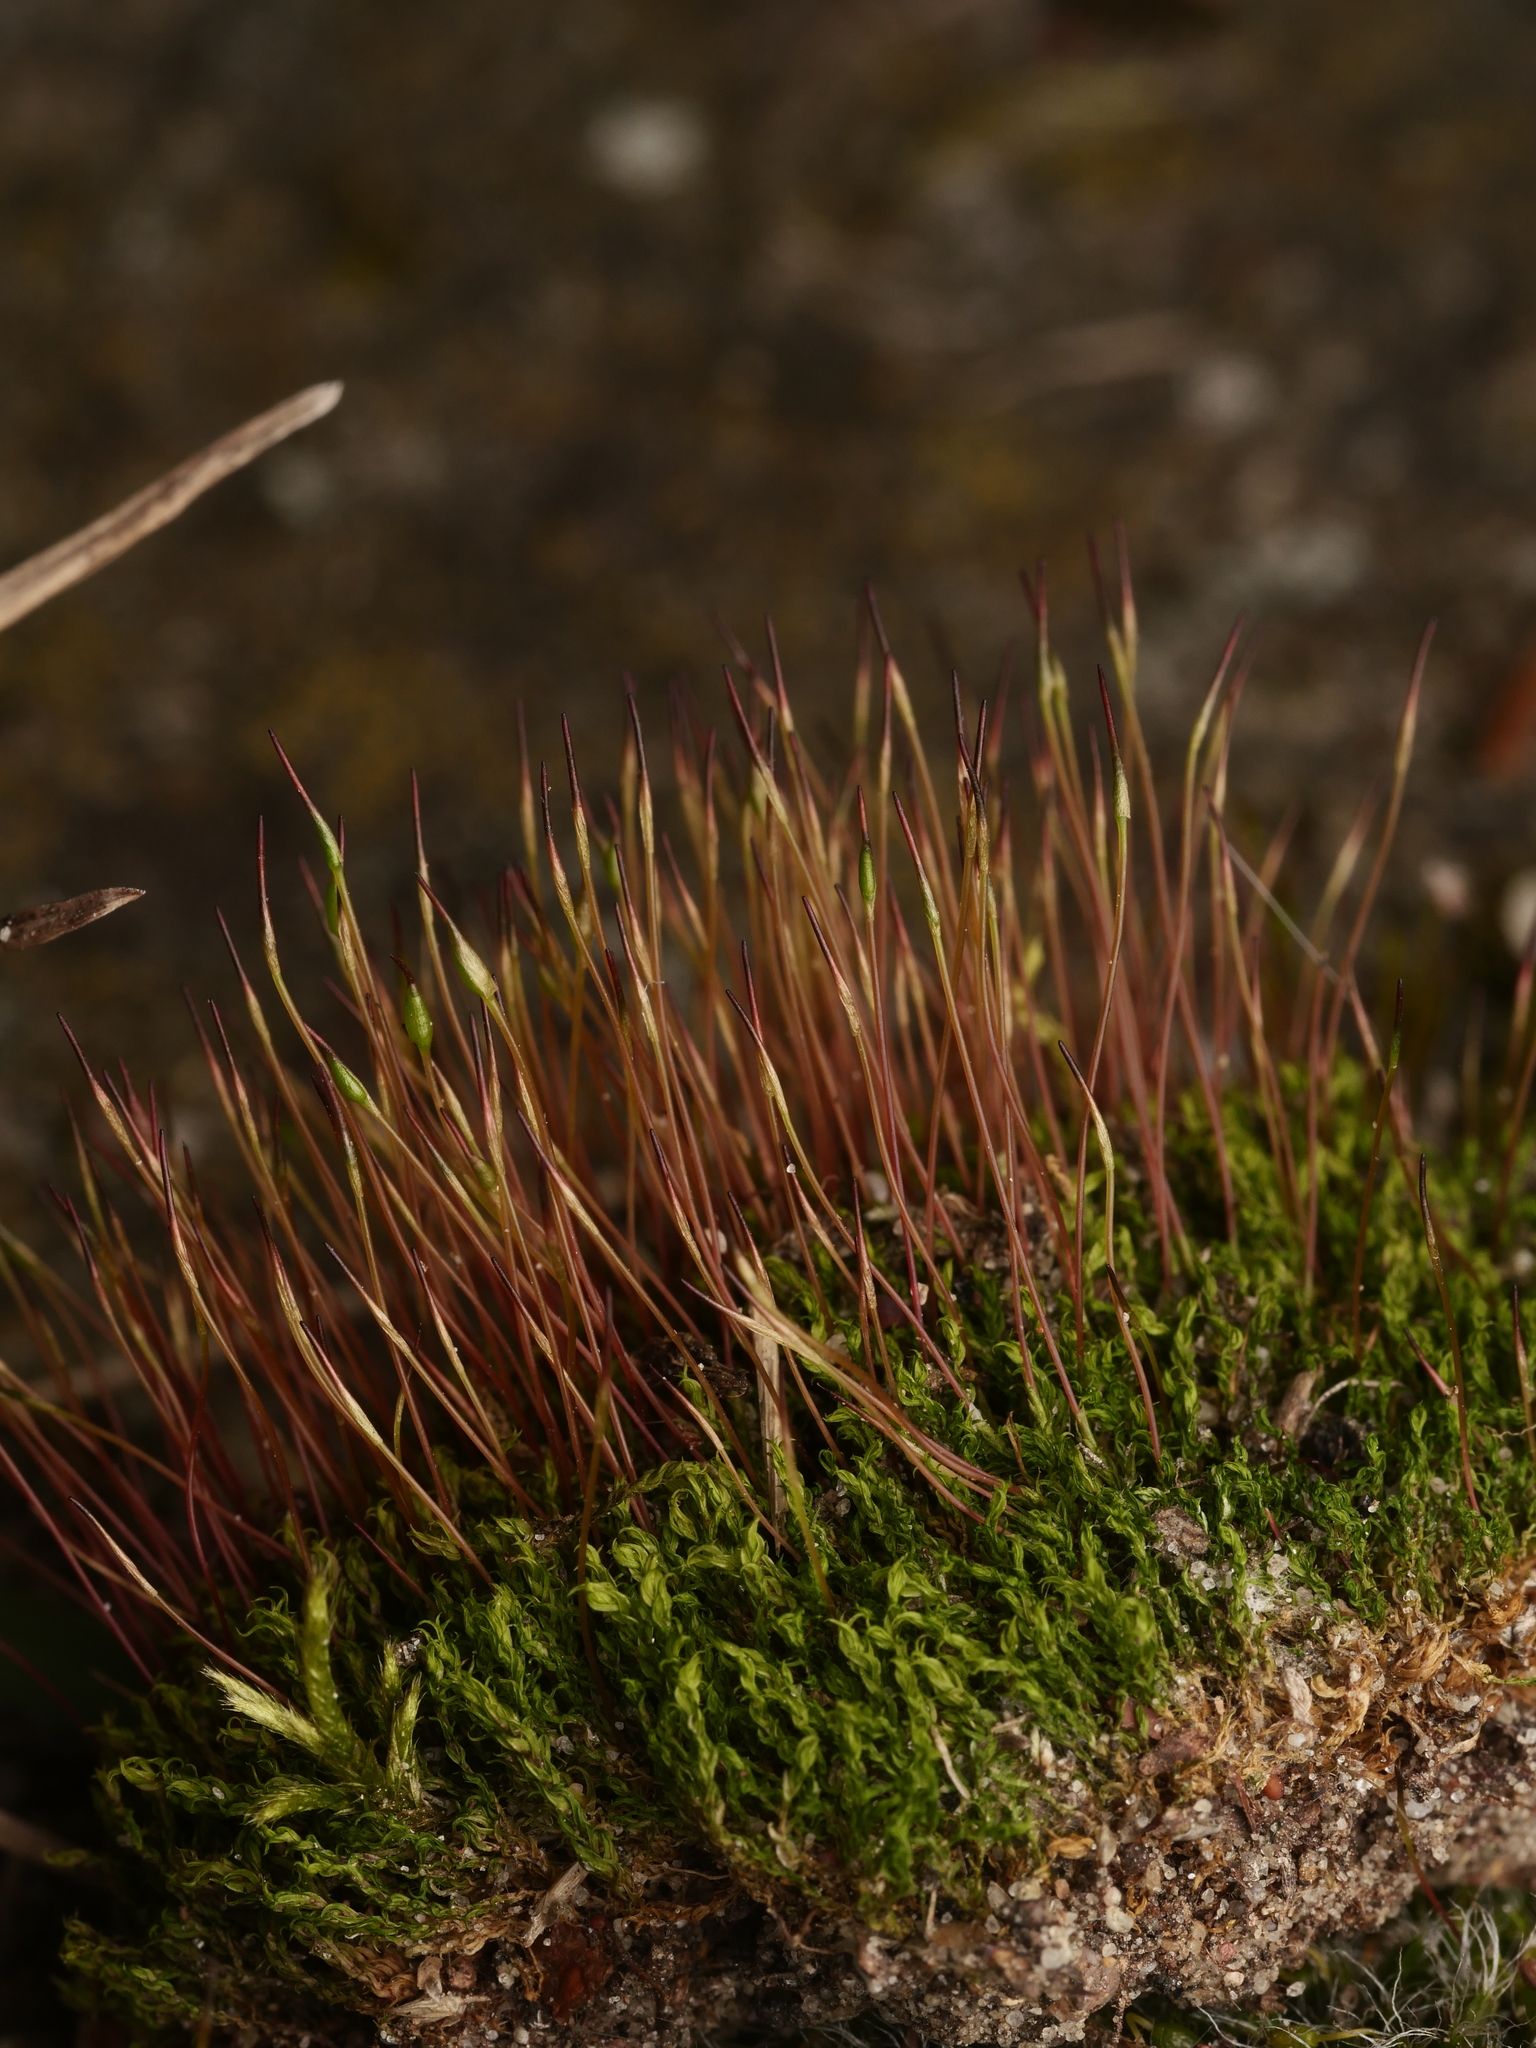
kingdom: Plantae
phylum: Bryophyta
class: Bryopsida
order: Dicranales
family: Ditrichaceae
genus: Ceratodon
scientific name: Ceratodon purpureus
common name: Redshank
